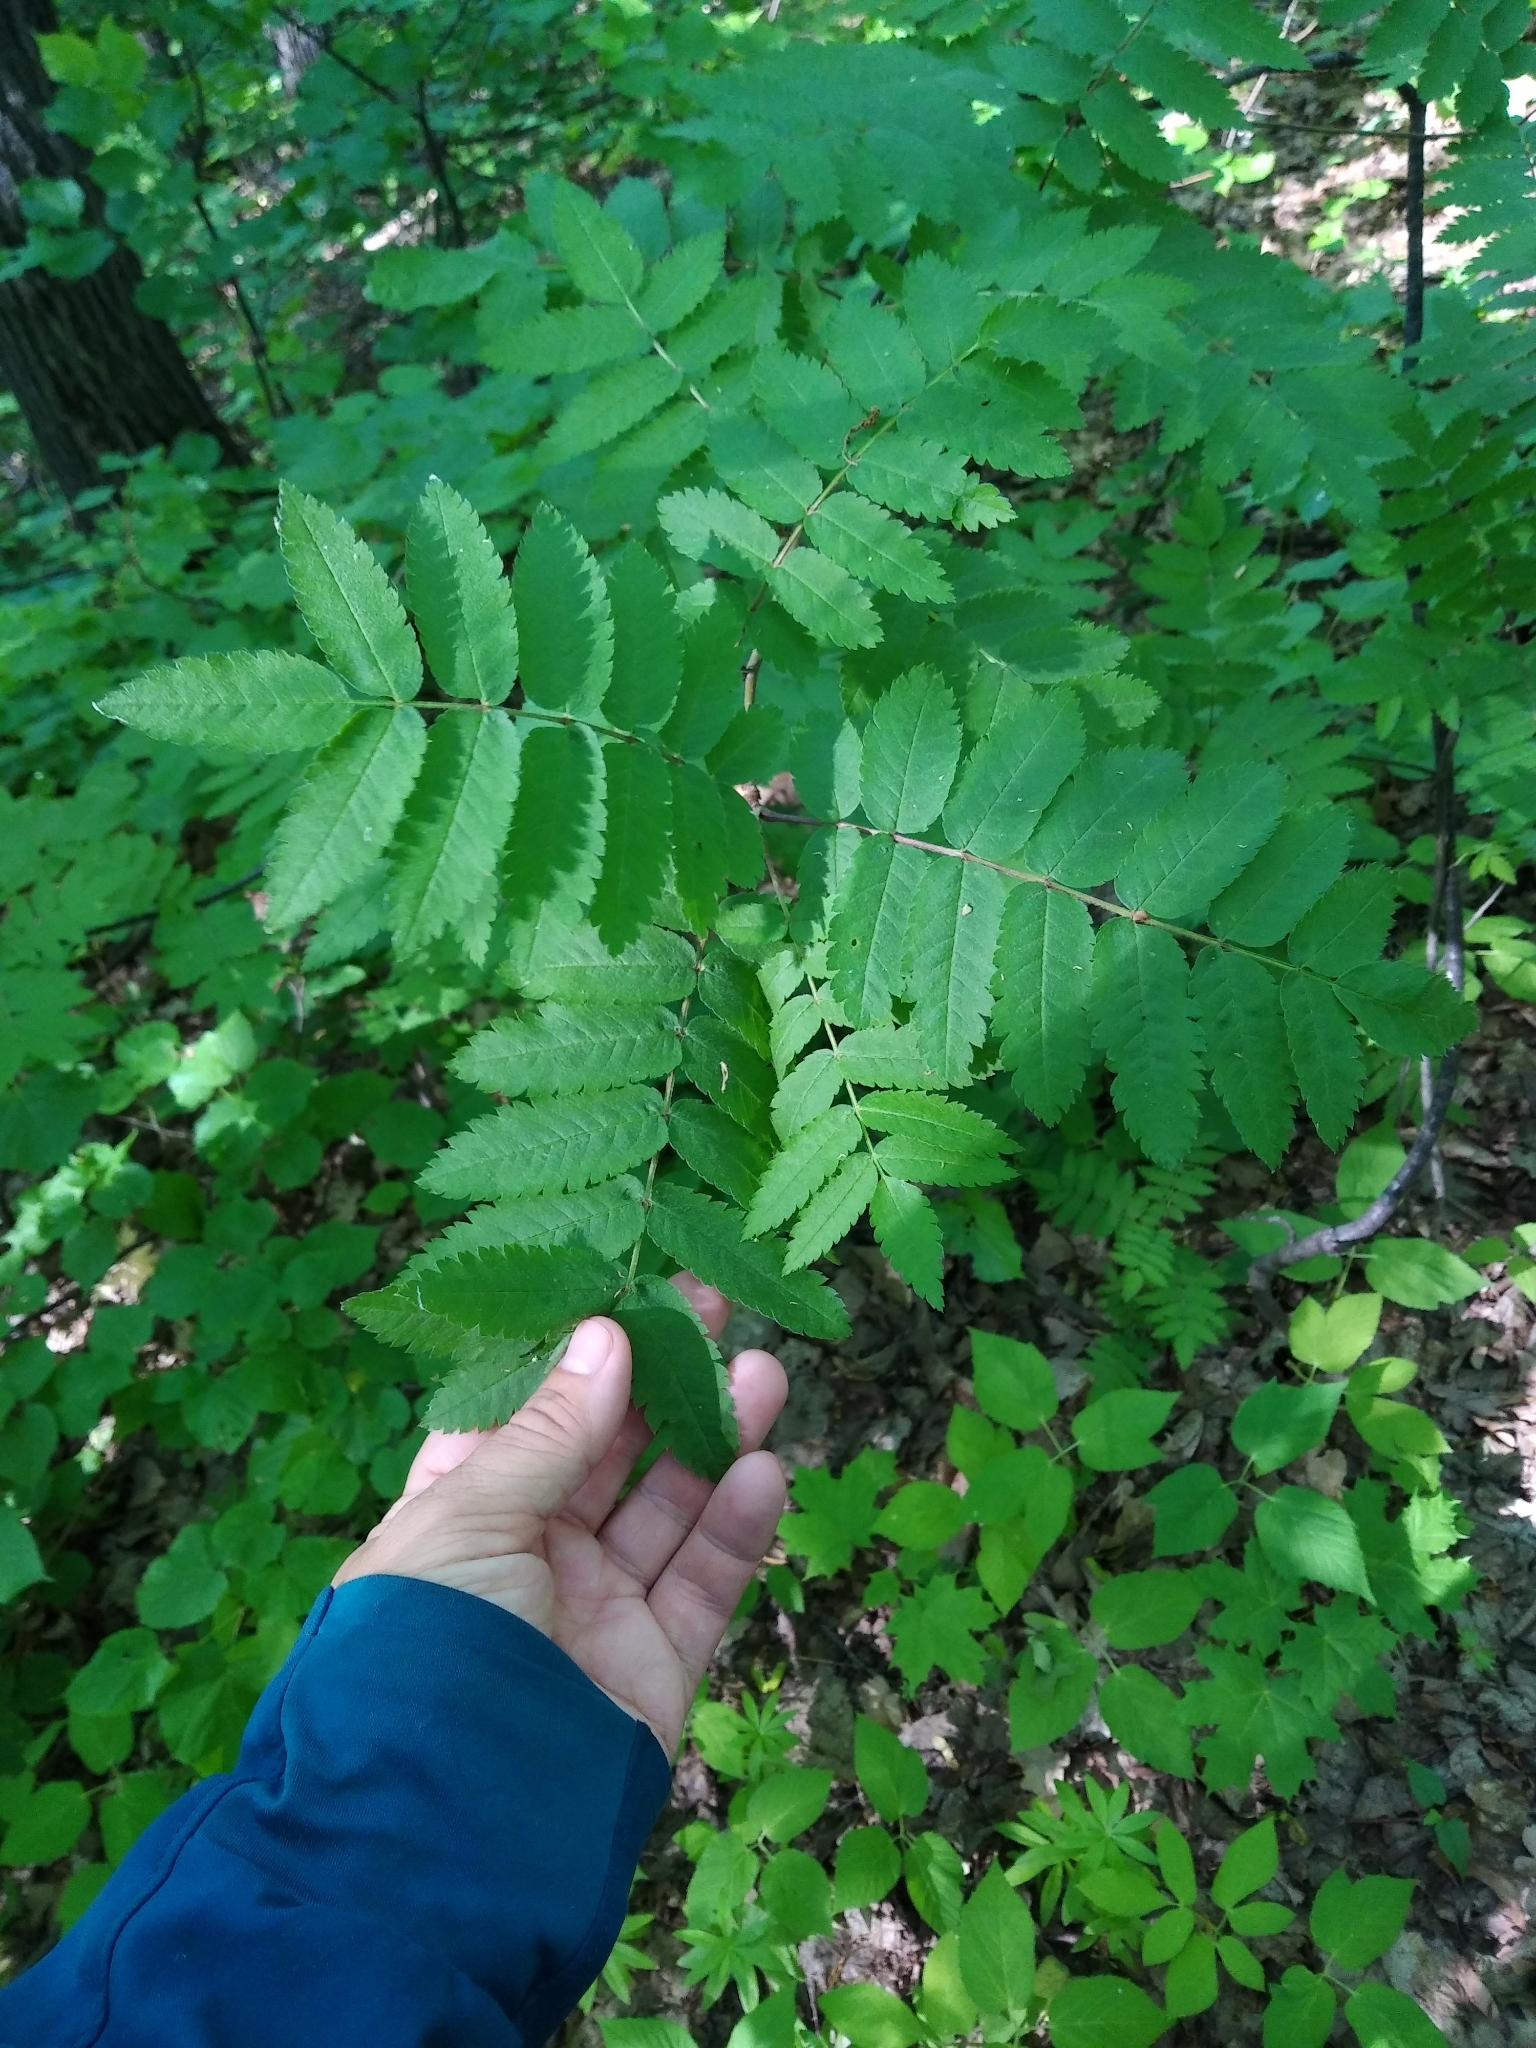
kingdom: Plantae
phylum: Tracheophyta
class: Magnoliopsida
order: Rosales
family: Rosaceae
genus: Sorbus
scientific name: Sorbus aucuparia
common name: Rowan
